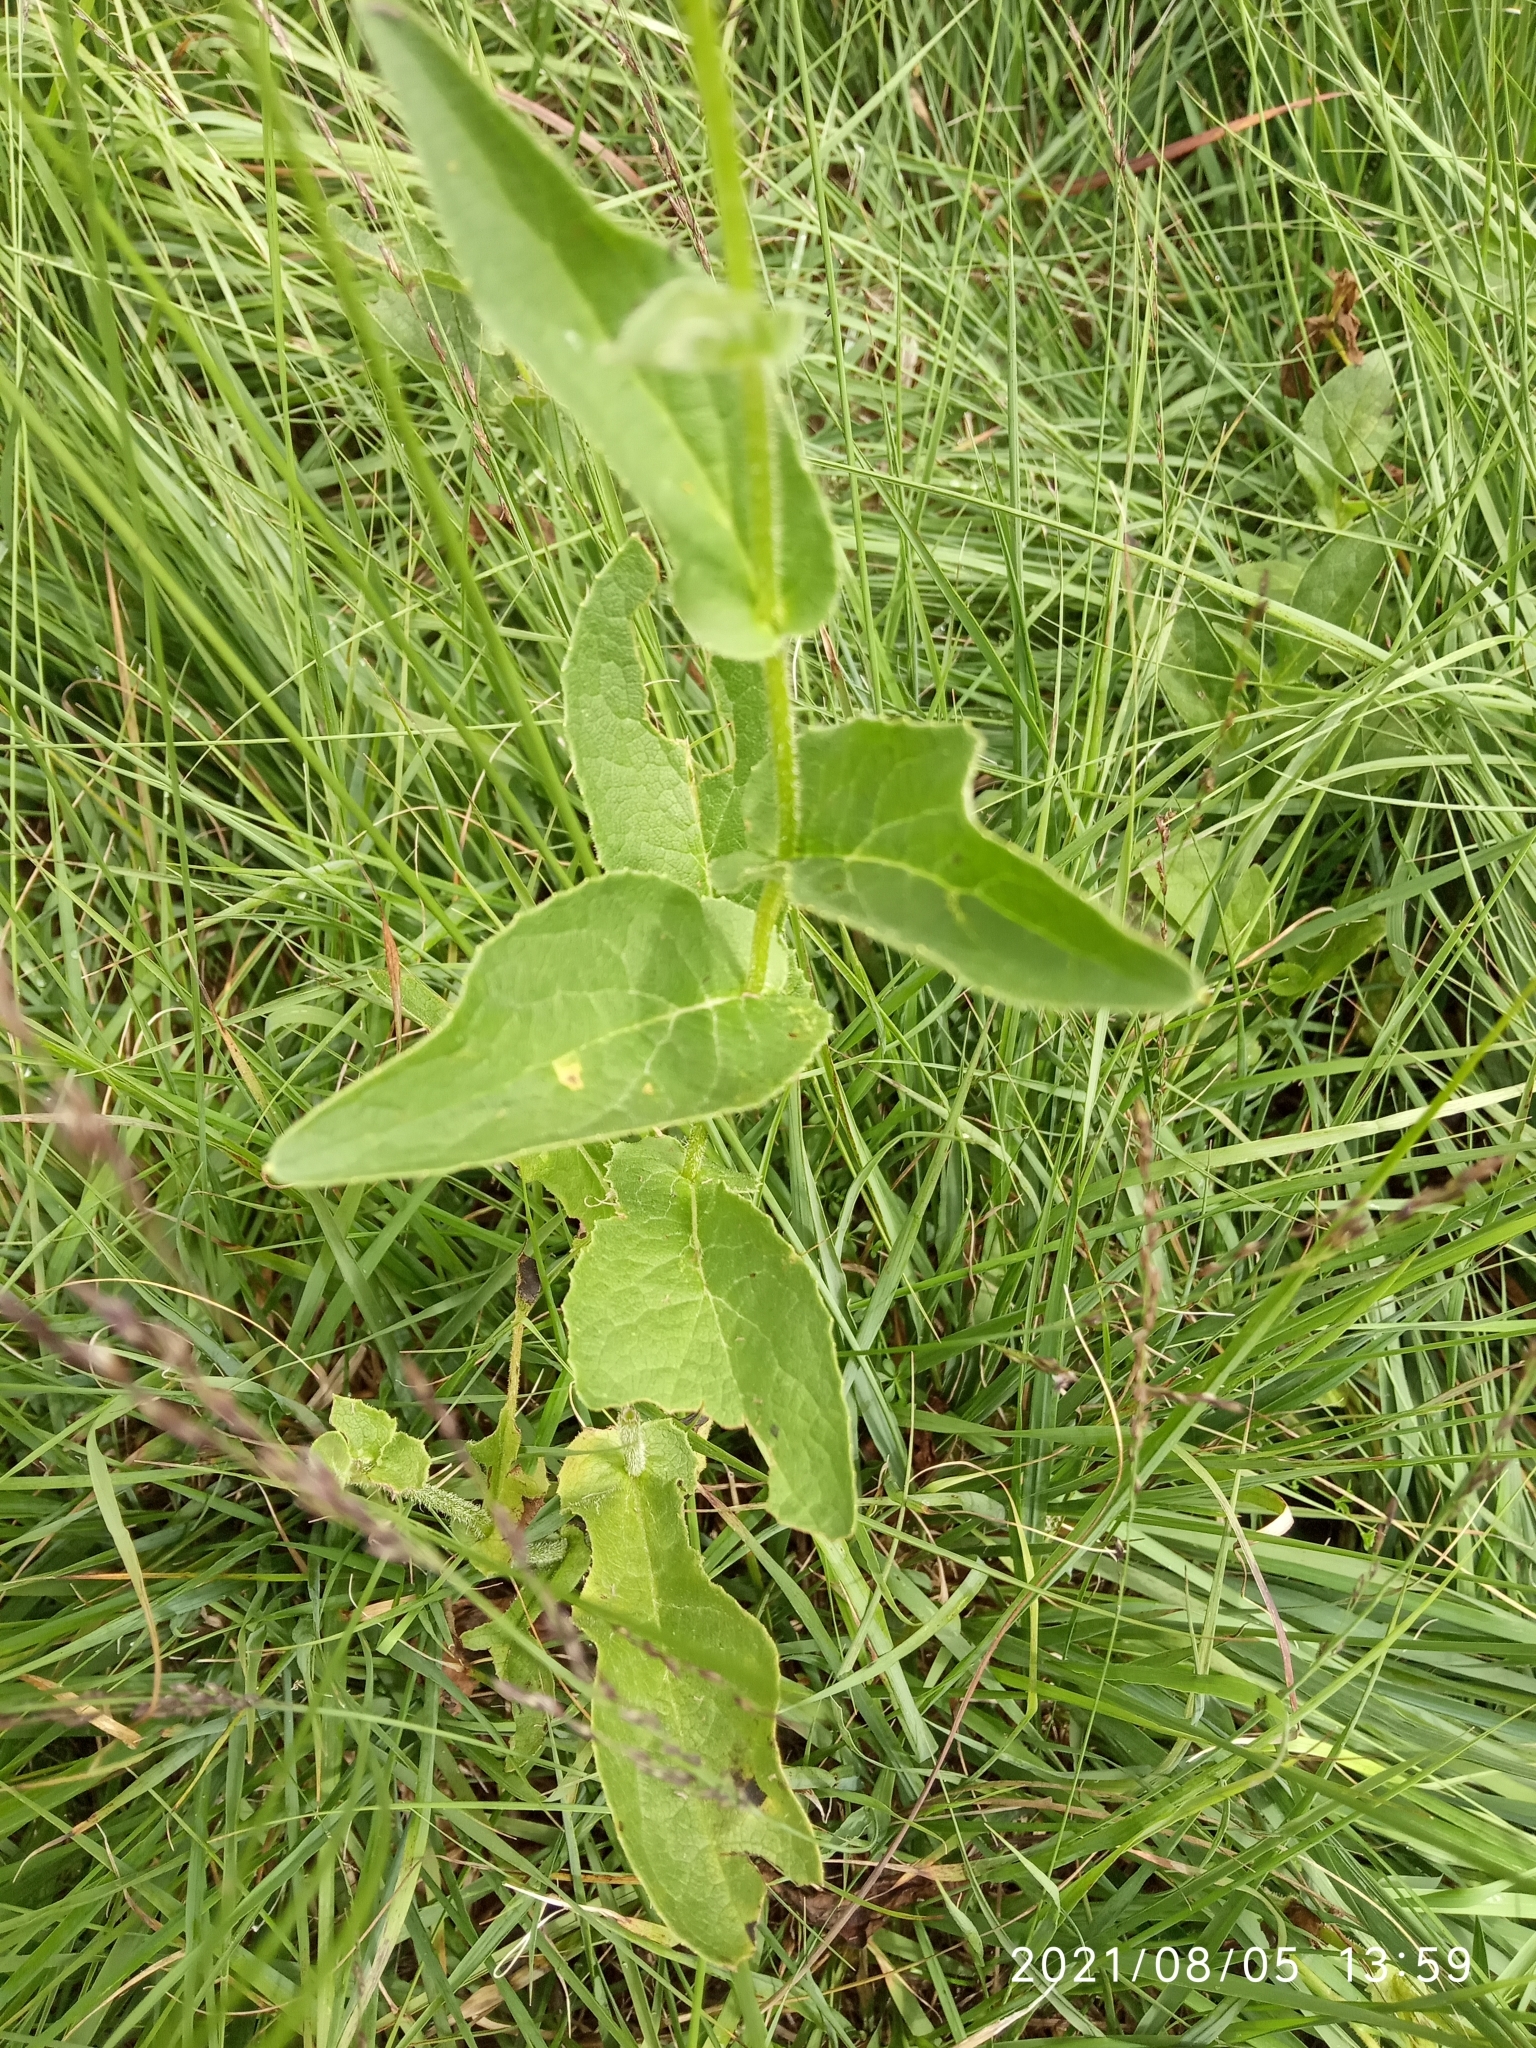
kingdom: Plantae
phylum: Tracheophyta
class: Magnoliopsida
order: Asterales
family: Asteraceae
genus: Doronicum
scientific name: Doronicum austriacum
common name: Austrian leopard's-bane
